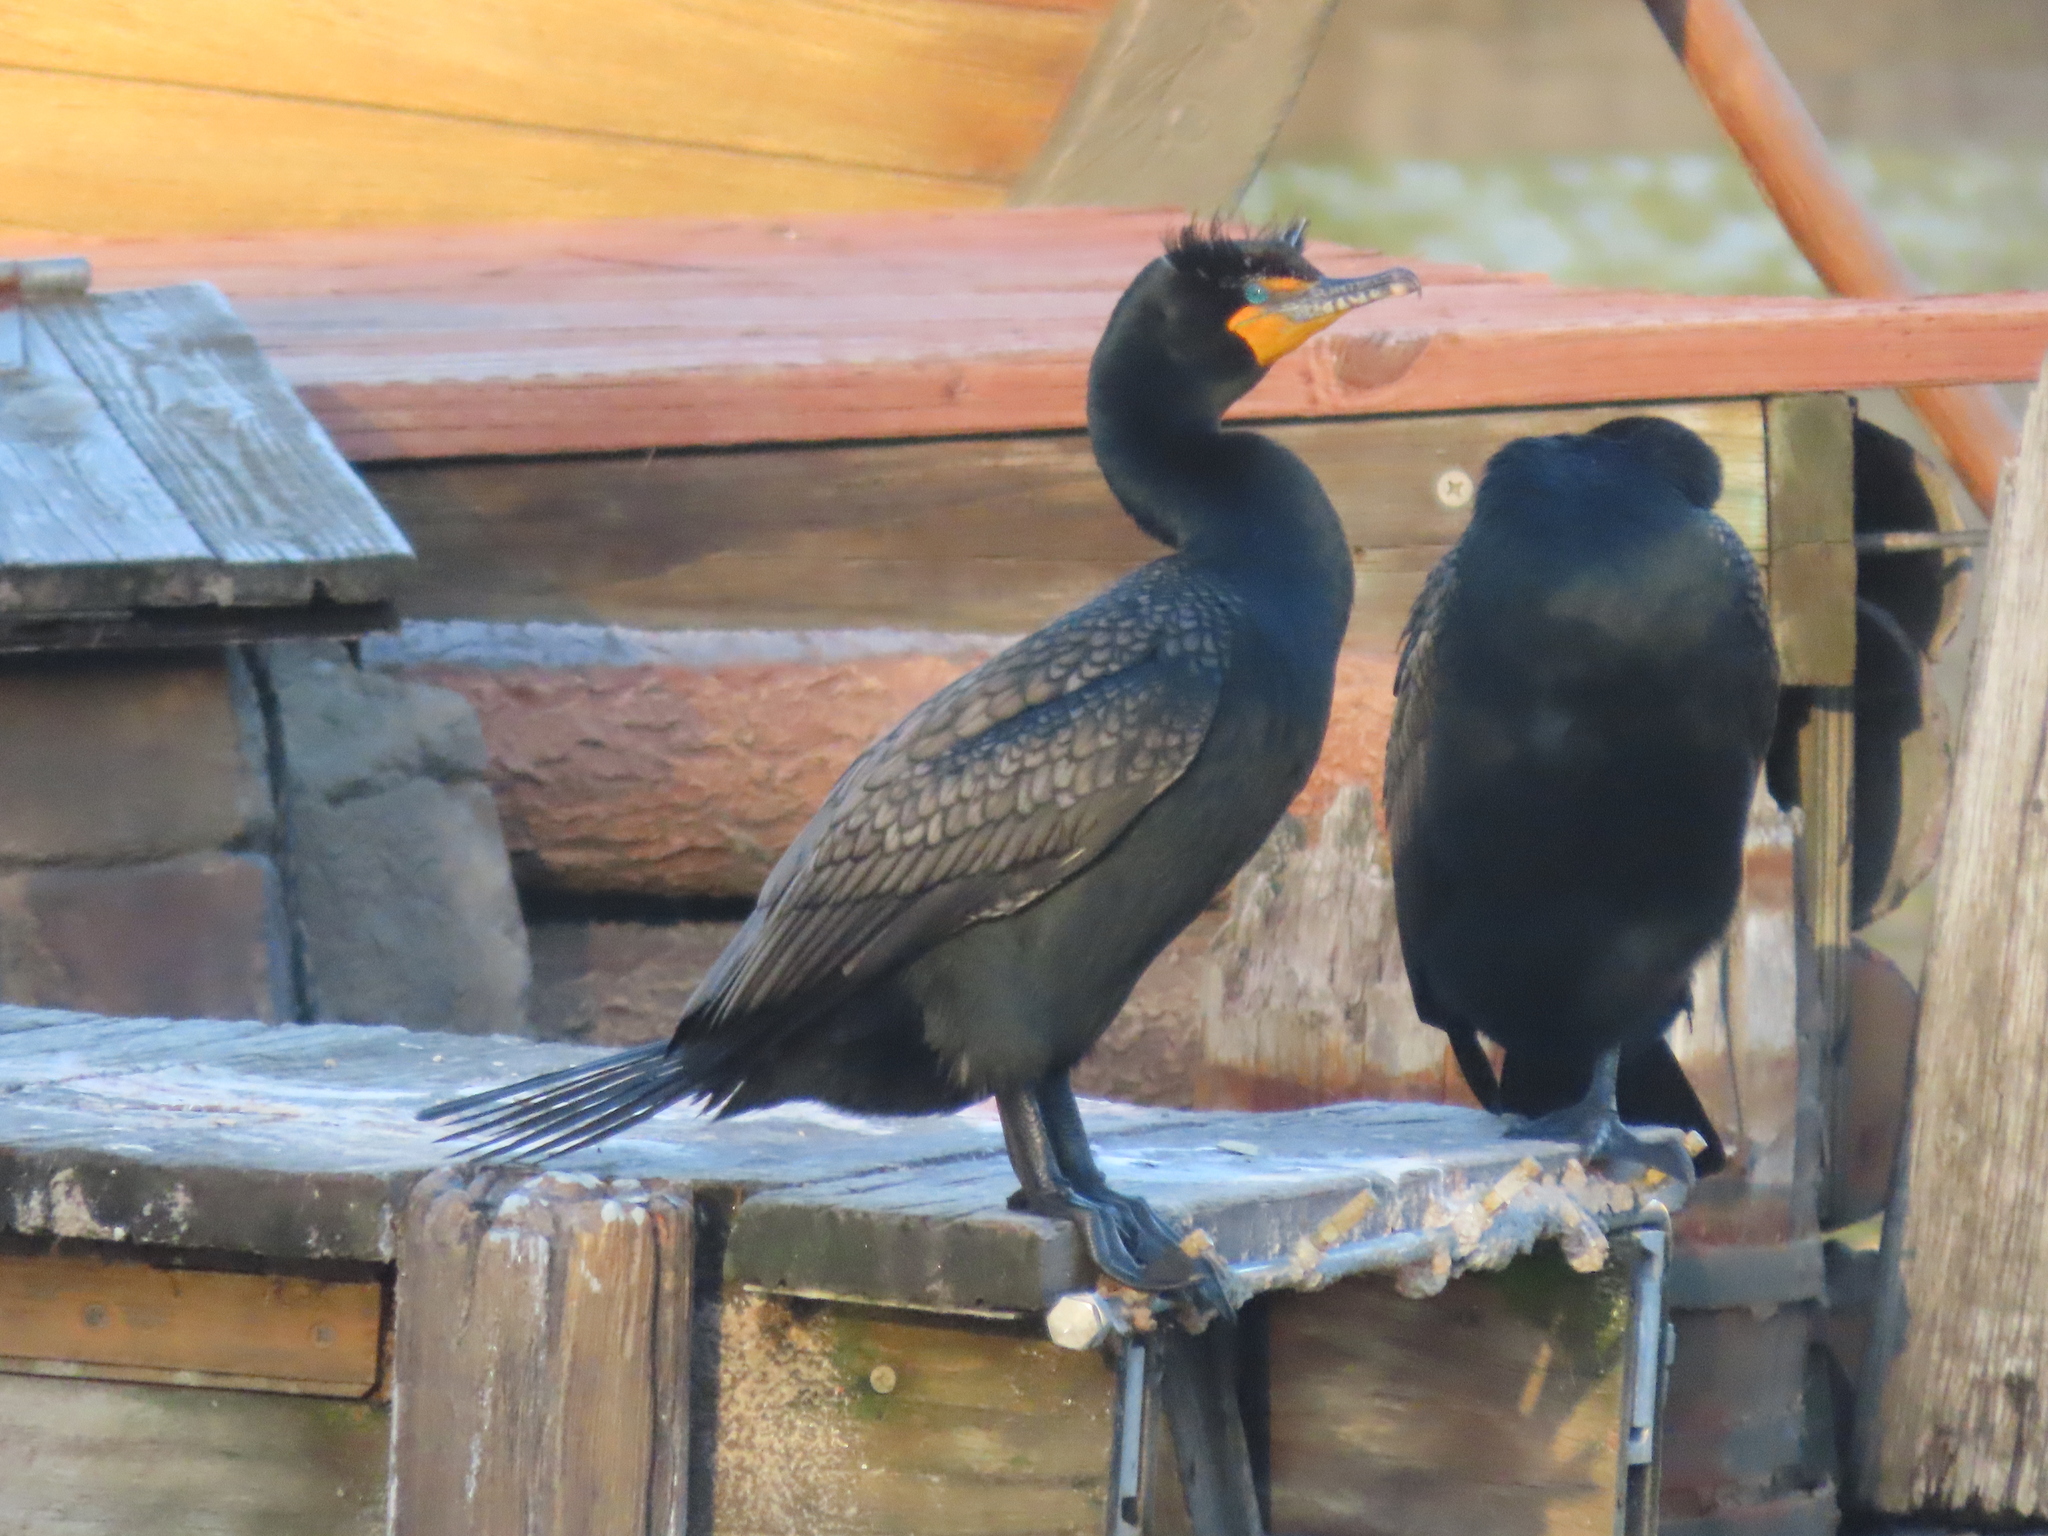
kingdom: Animalia
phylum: Chordata
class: Aves
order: Suliformes
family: Phalacrocoracidae
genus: Phalacrocorax
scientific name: Phalacrocorax auritus
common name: Double-crested cormorant
